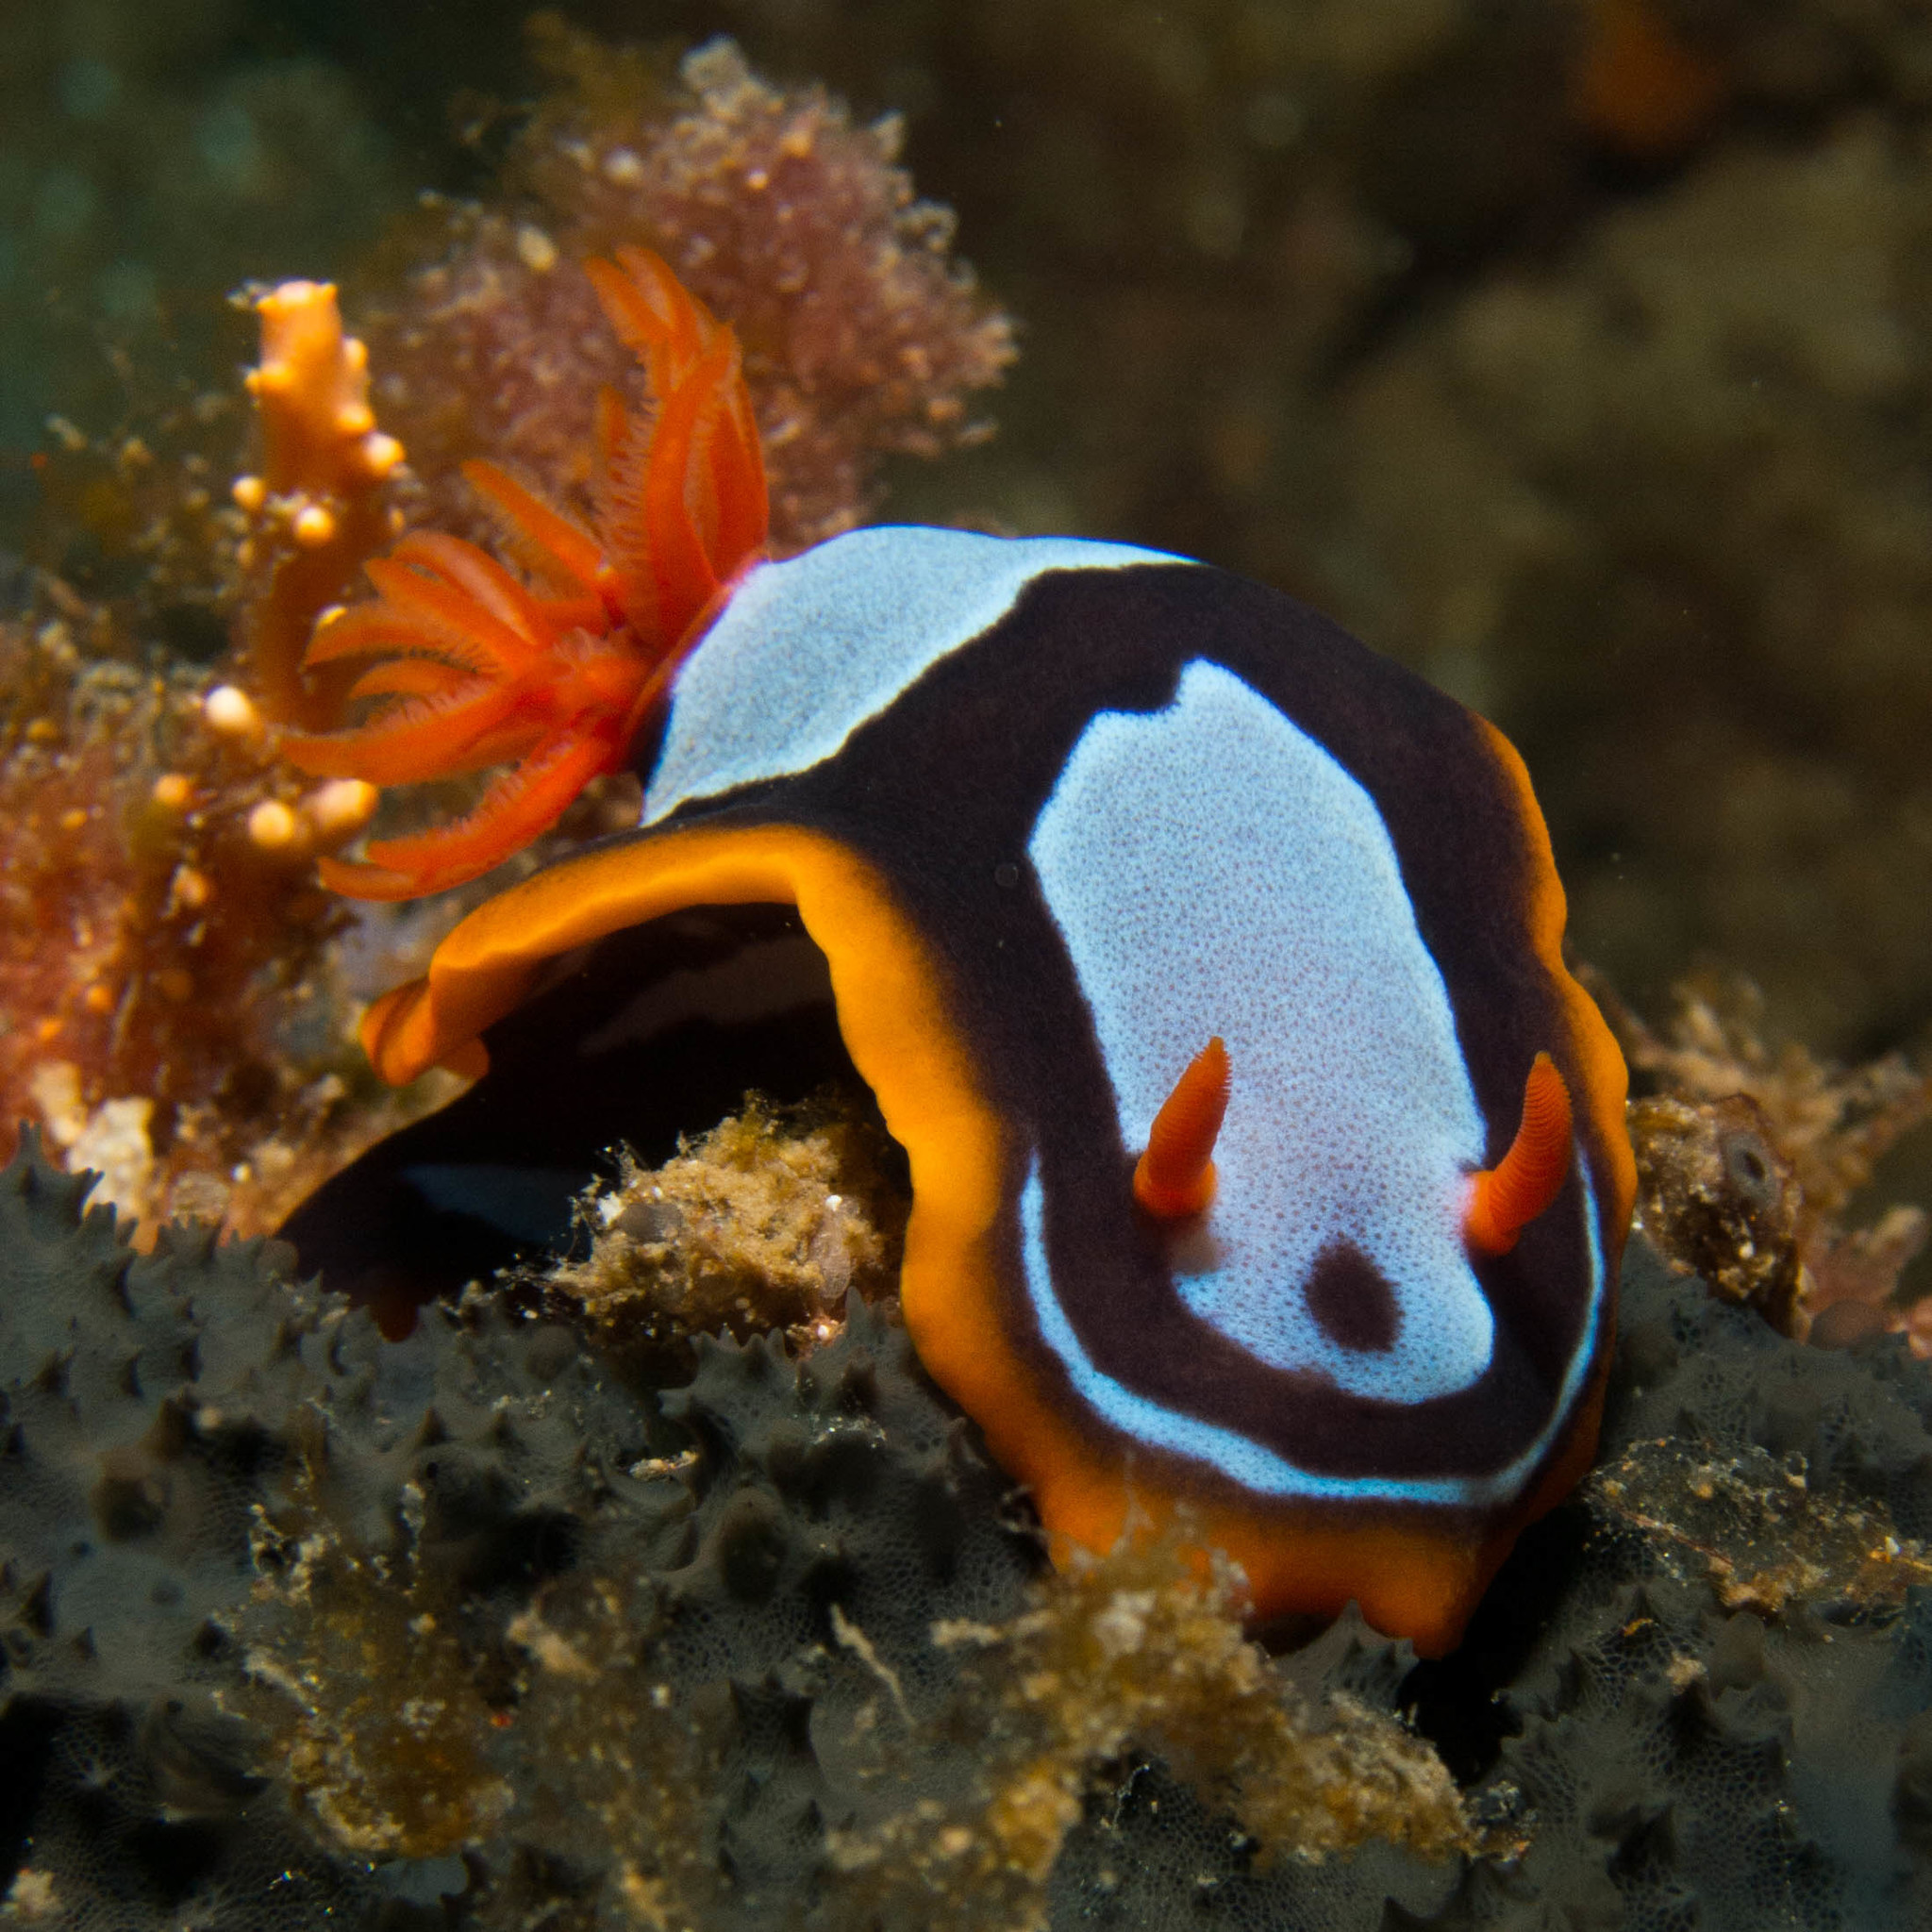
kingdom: Animalia
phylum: Mollusca
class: Gastropoda
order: Nudibranchia
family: Chromodorididae
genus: Chromodoris
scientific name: Chromodoris westraliensis
